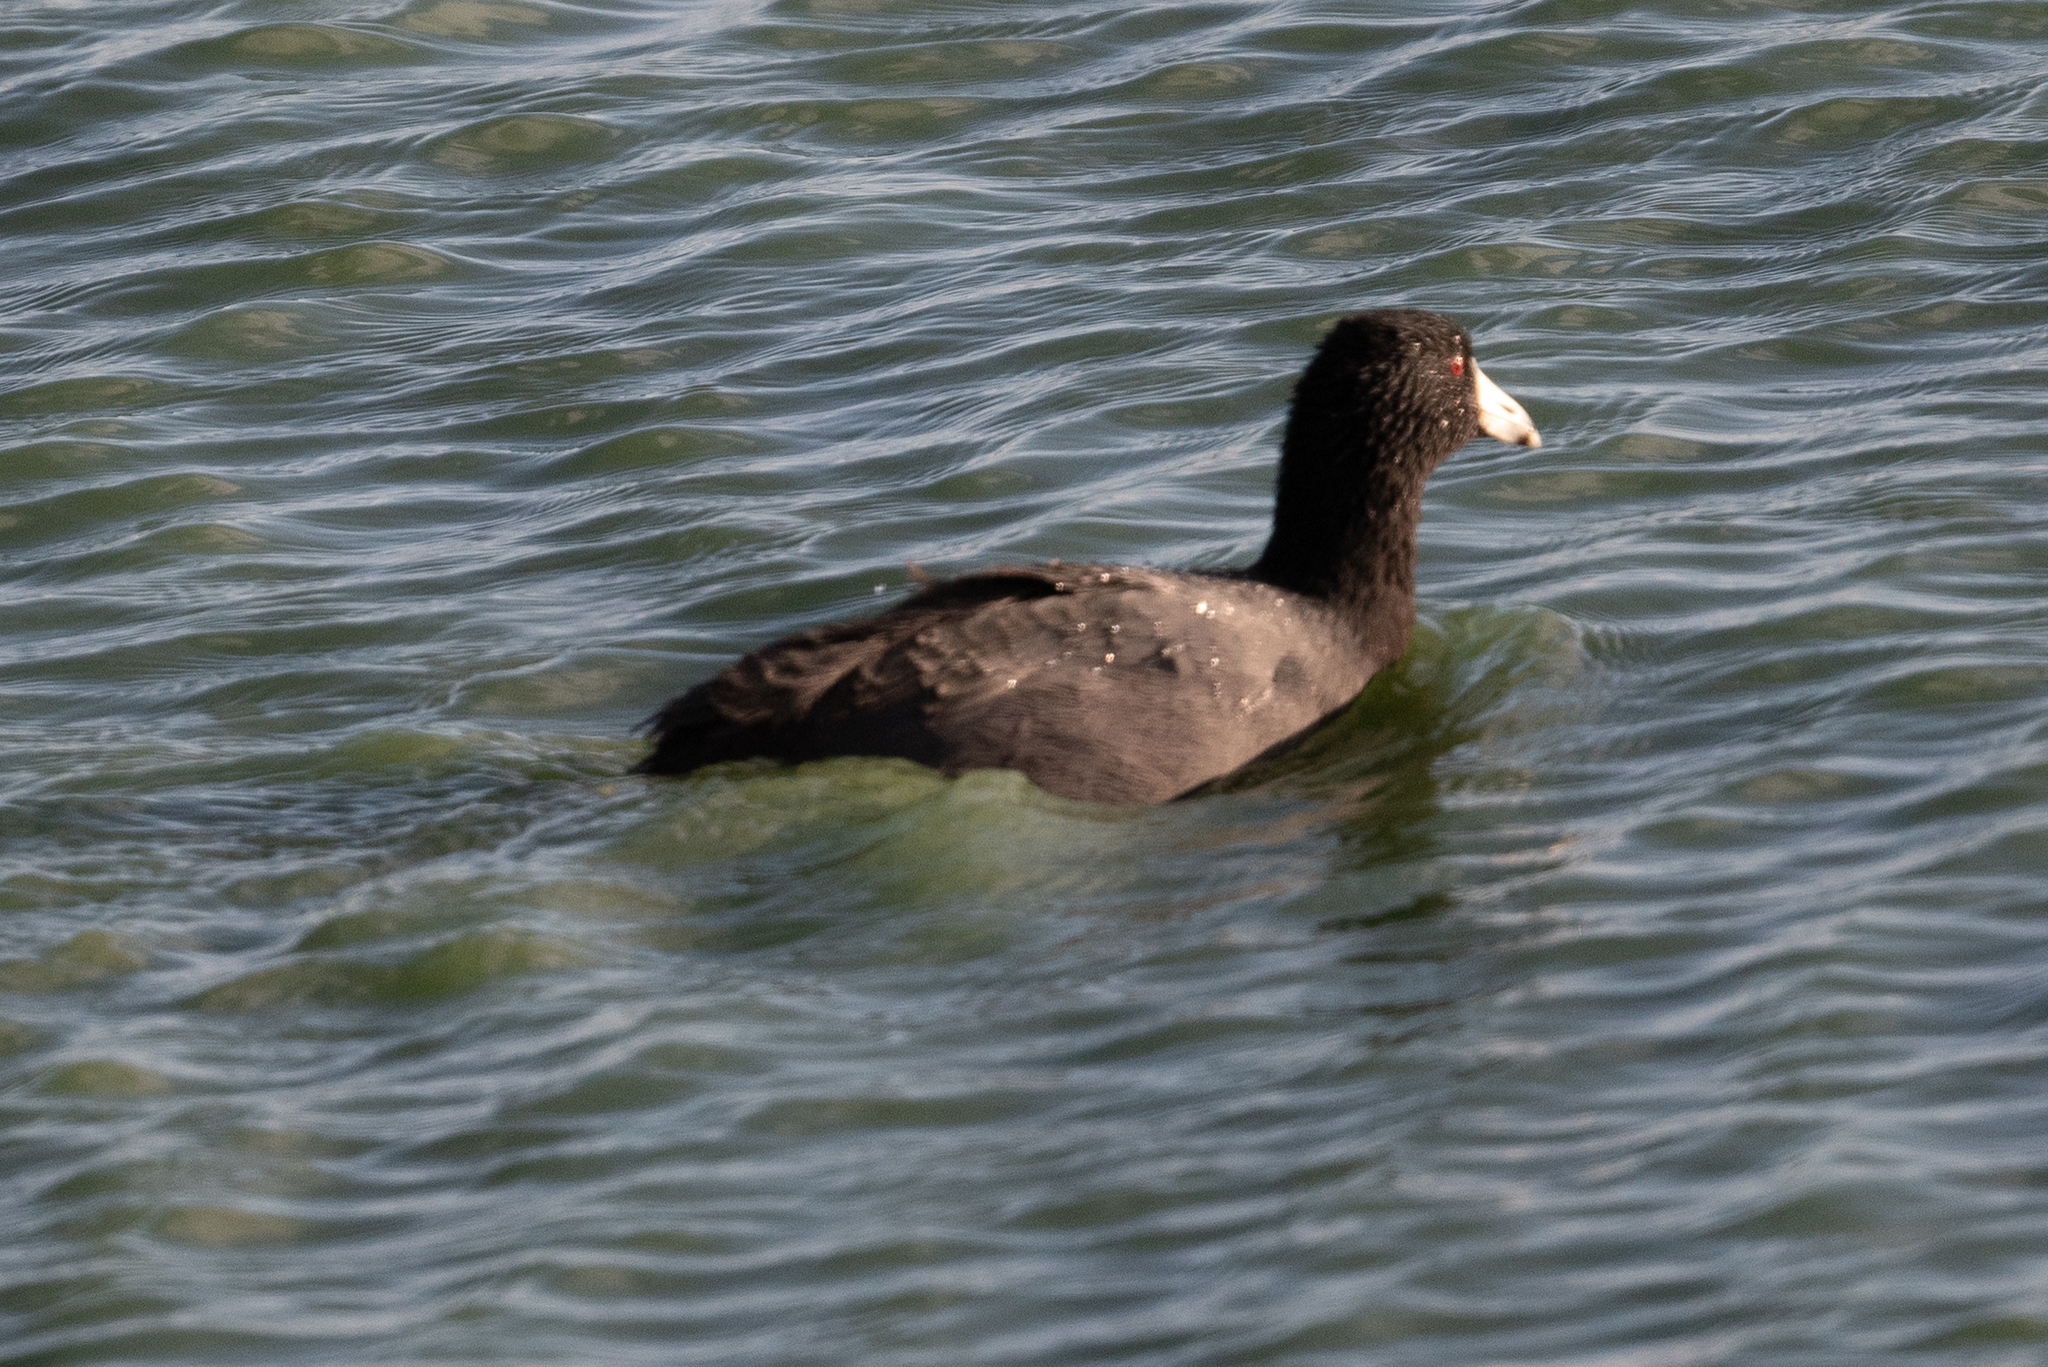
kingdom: Animalia
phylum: Chordata
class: Aves
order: Gruiformes
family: Rallidae
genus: Fulica
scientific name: Fulica americana
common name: American coot
